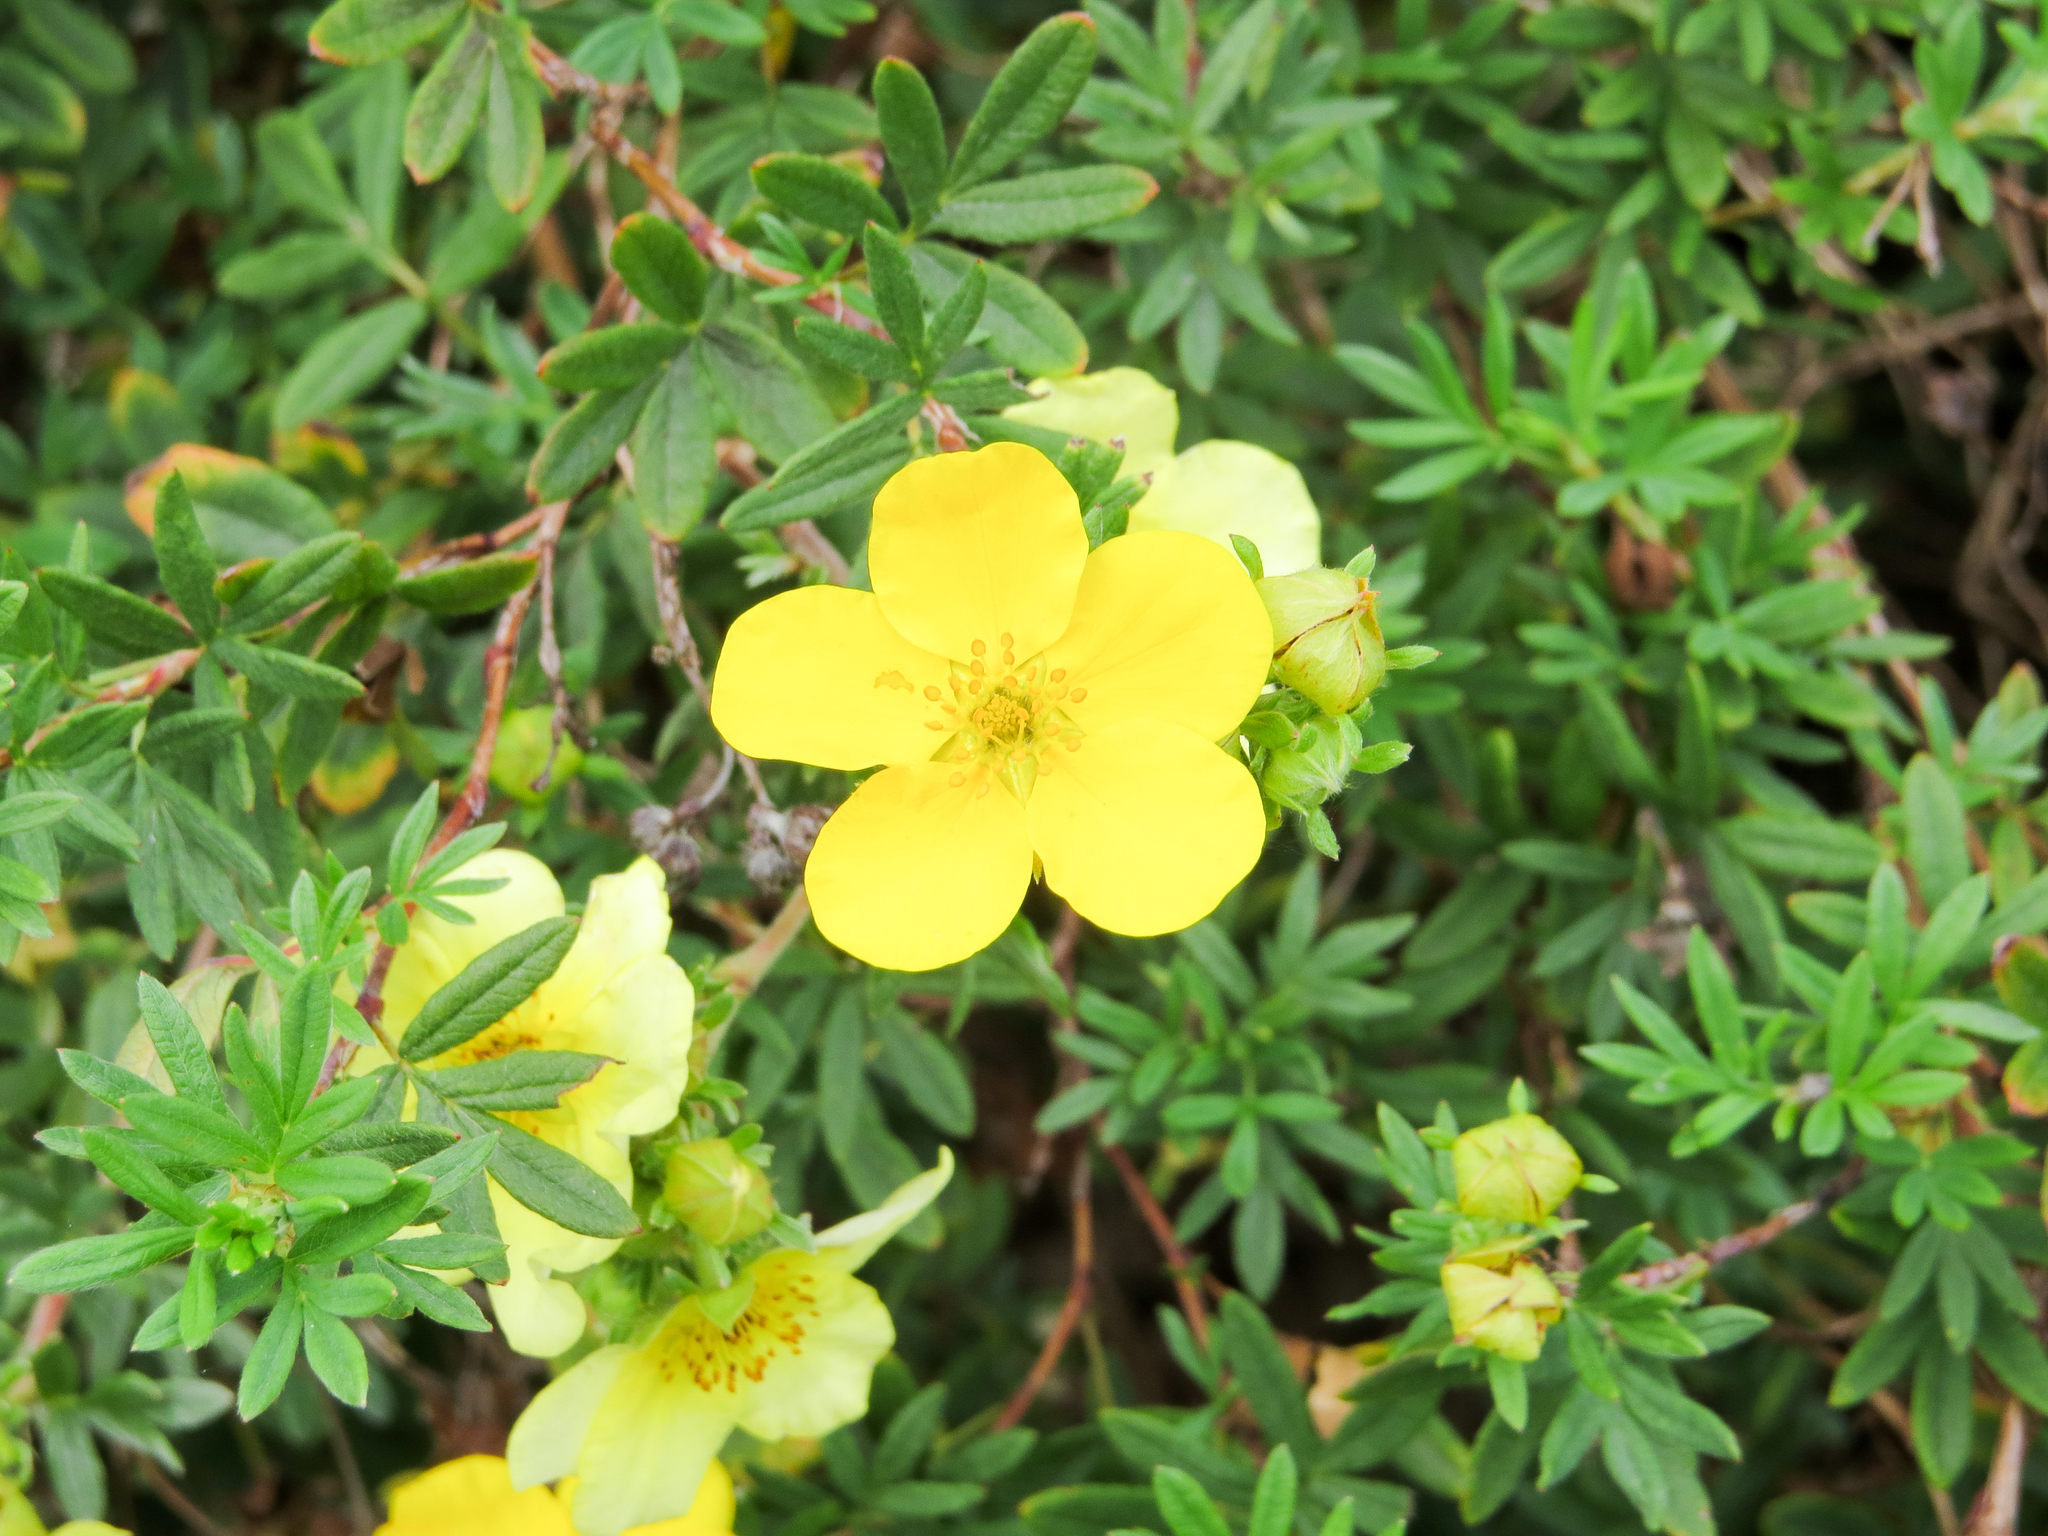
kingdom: Plantae
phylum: Tracheophyta
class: Magnoliopsida
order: Rosales
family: Rosaceae
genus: Dasiphora
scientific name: Dasiphora fruticosa
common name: Shrubby cinquefoil
